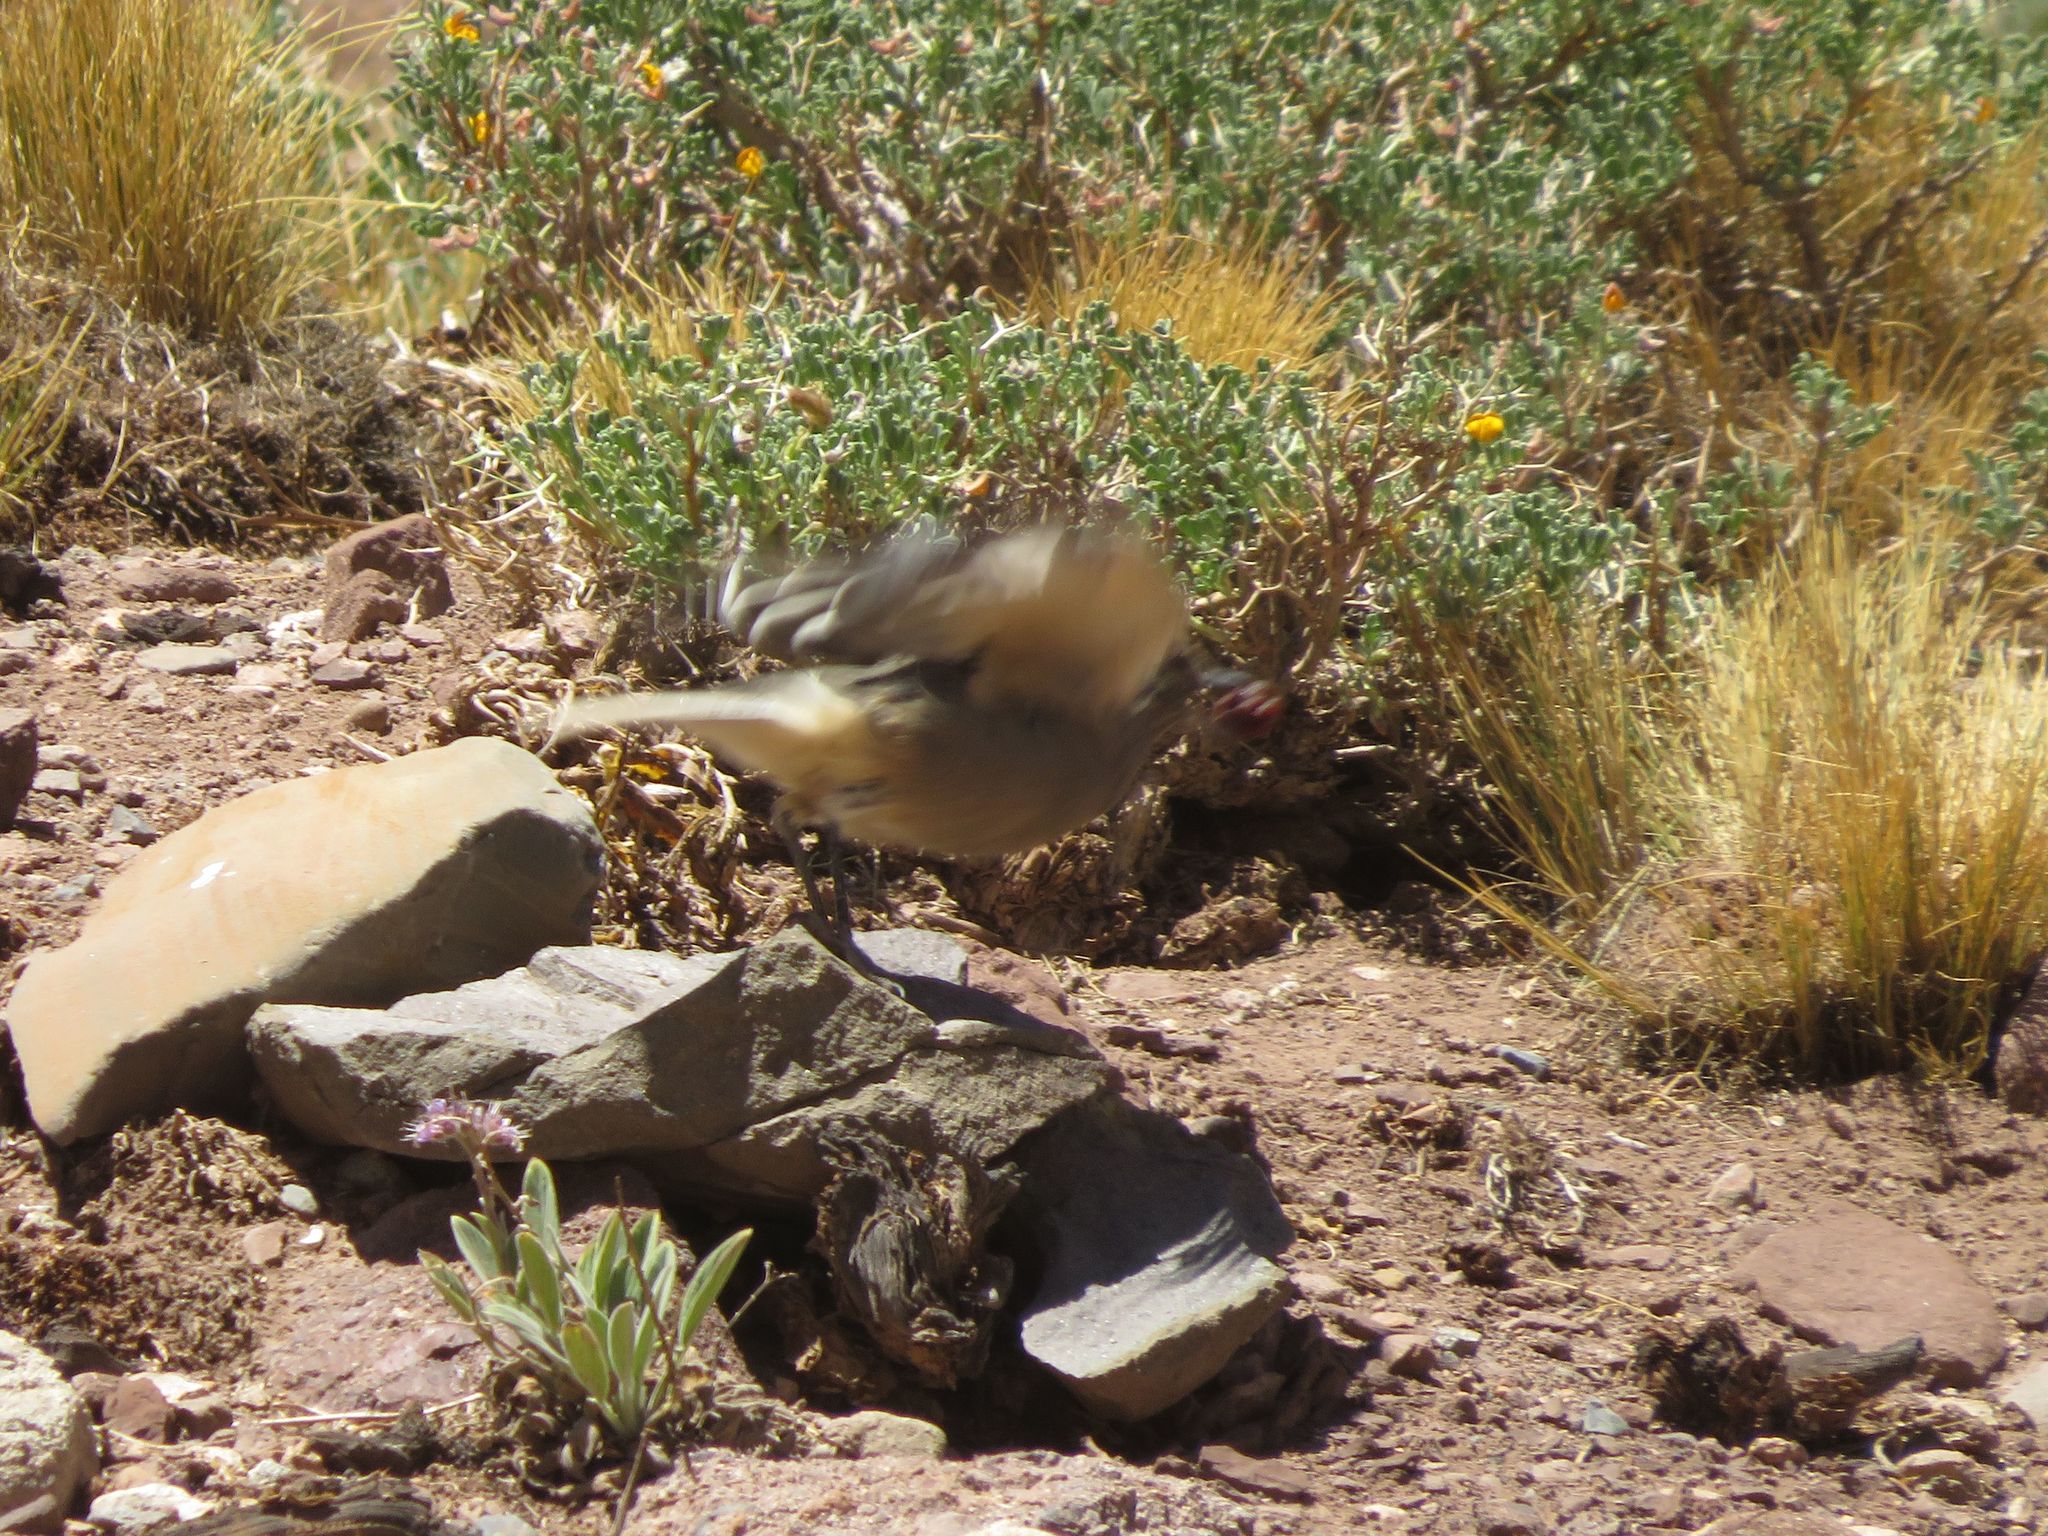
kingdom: Animalia
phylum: Chordata
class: Aves
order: Passeriformes
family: Tyrannidae
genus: Agriornis
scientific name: Agriornis montanus
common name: Black-billed shrike-tyrant
